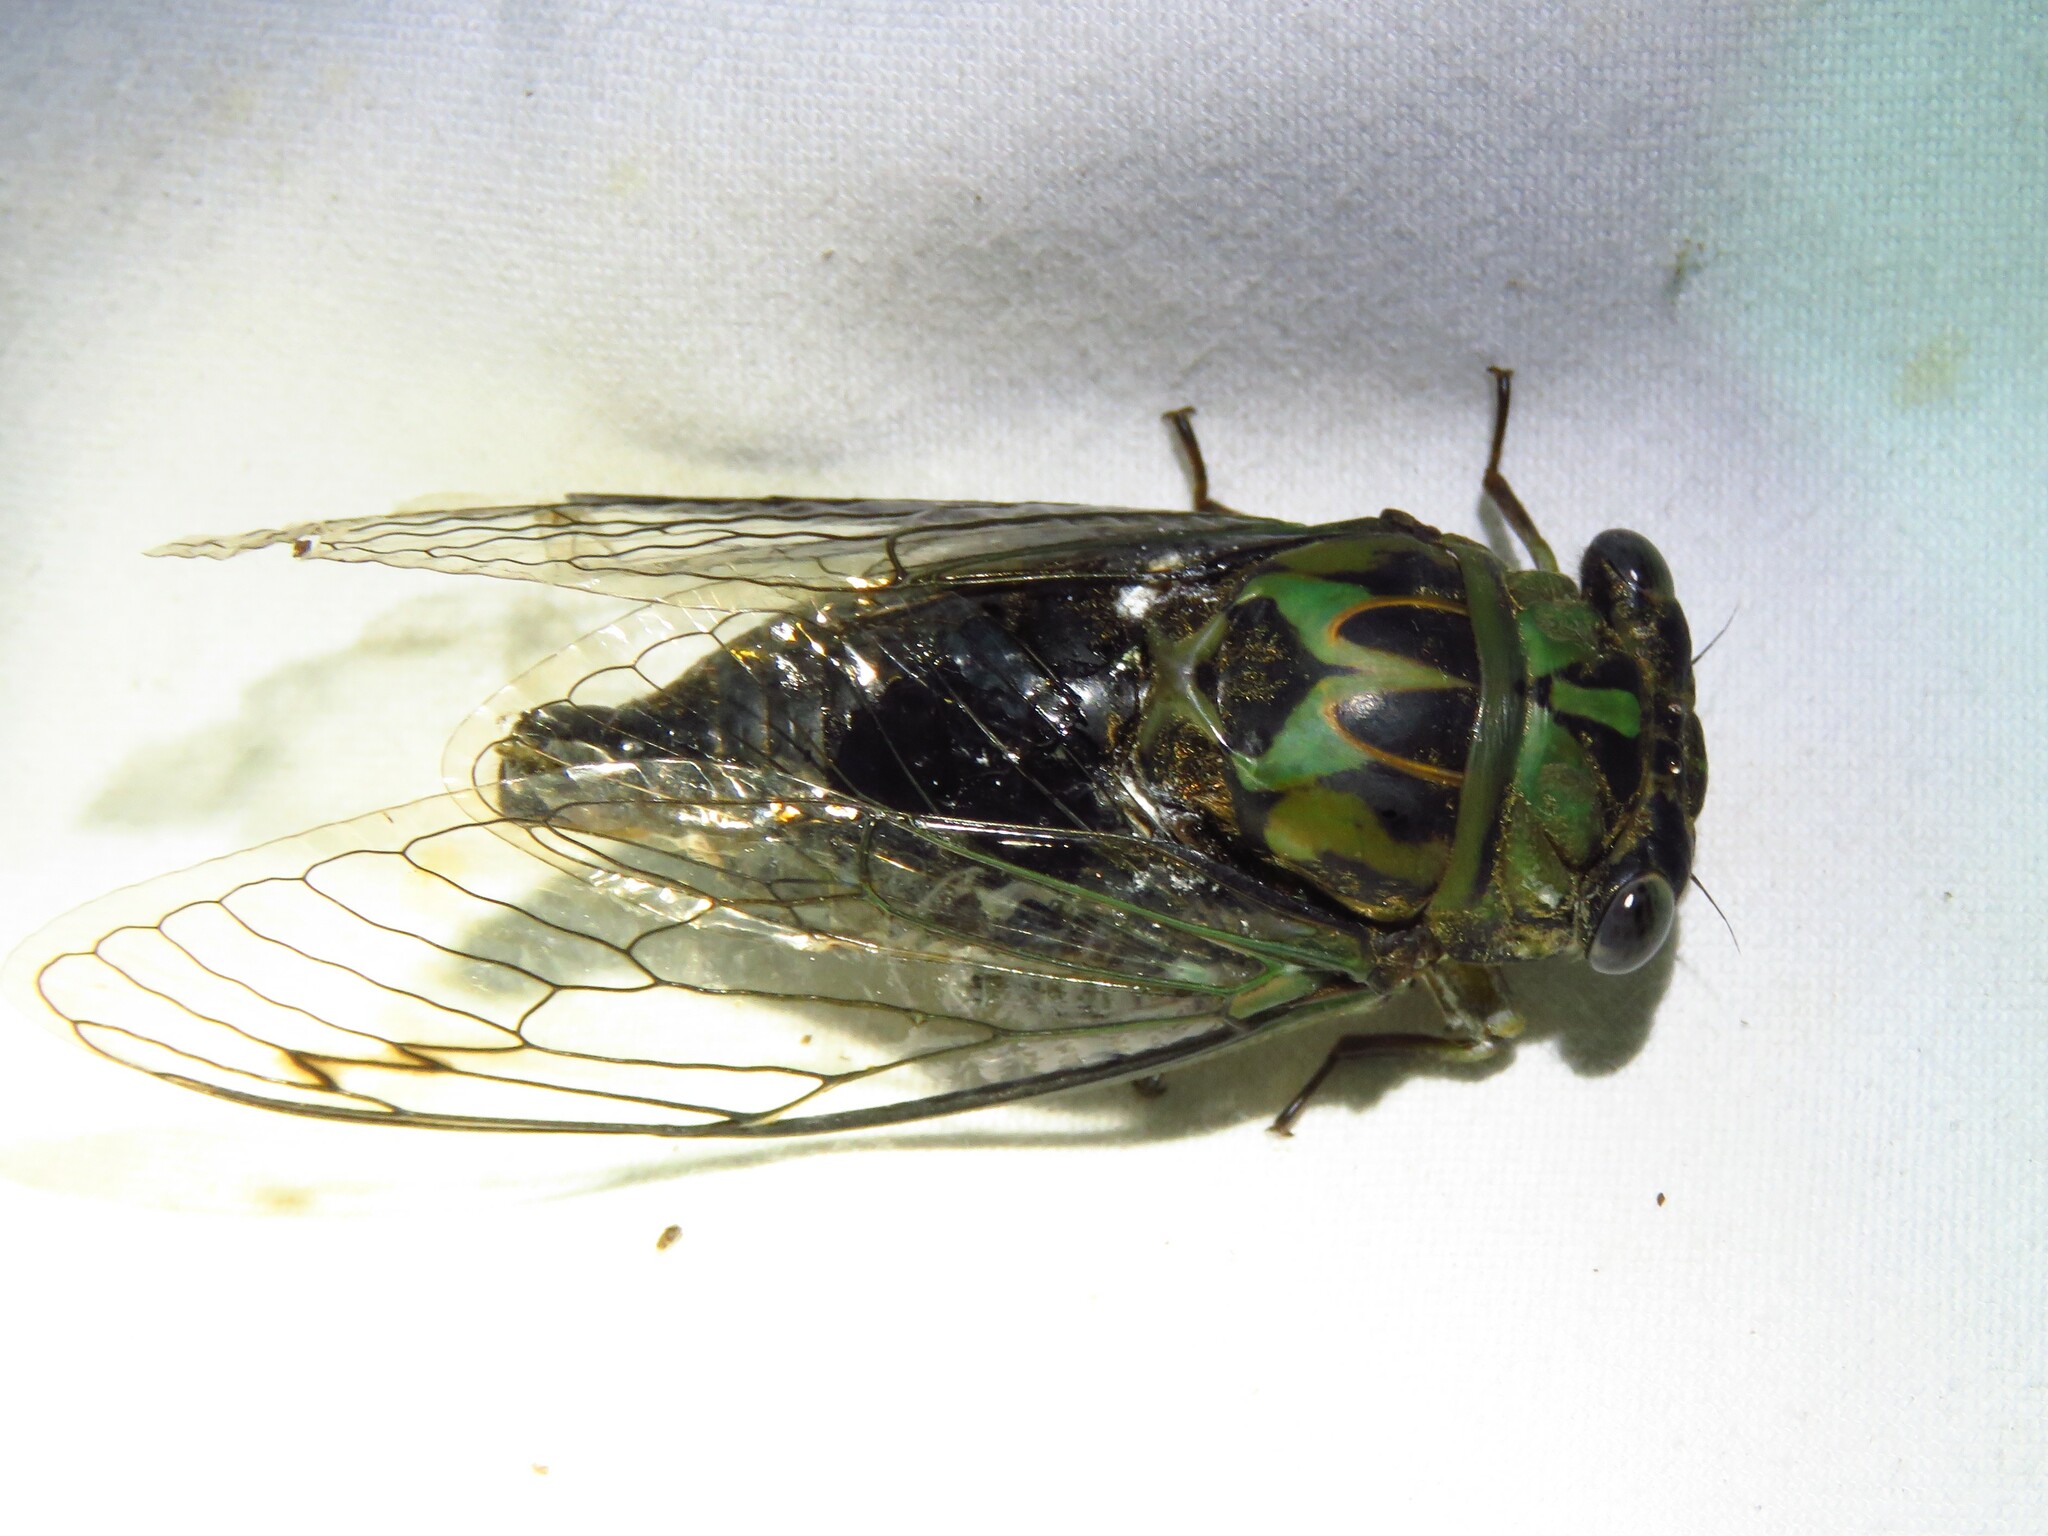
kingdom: Animalia
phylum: Arthropoda
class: Insecta
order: Hemiptera
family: Cicadidae
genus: Neotibicen
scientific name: Neotibicen pruinosus
